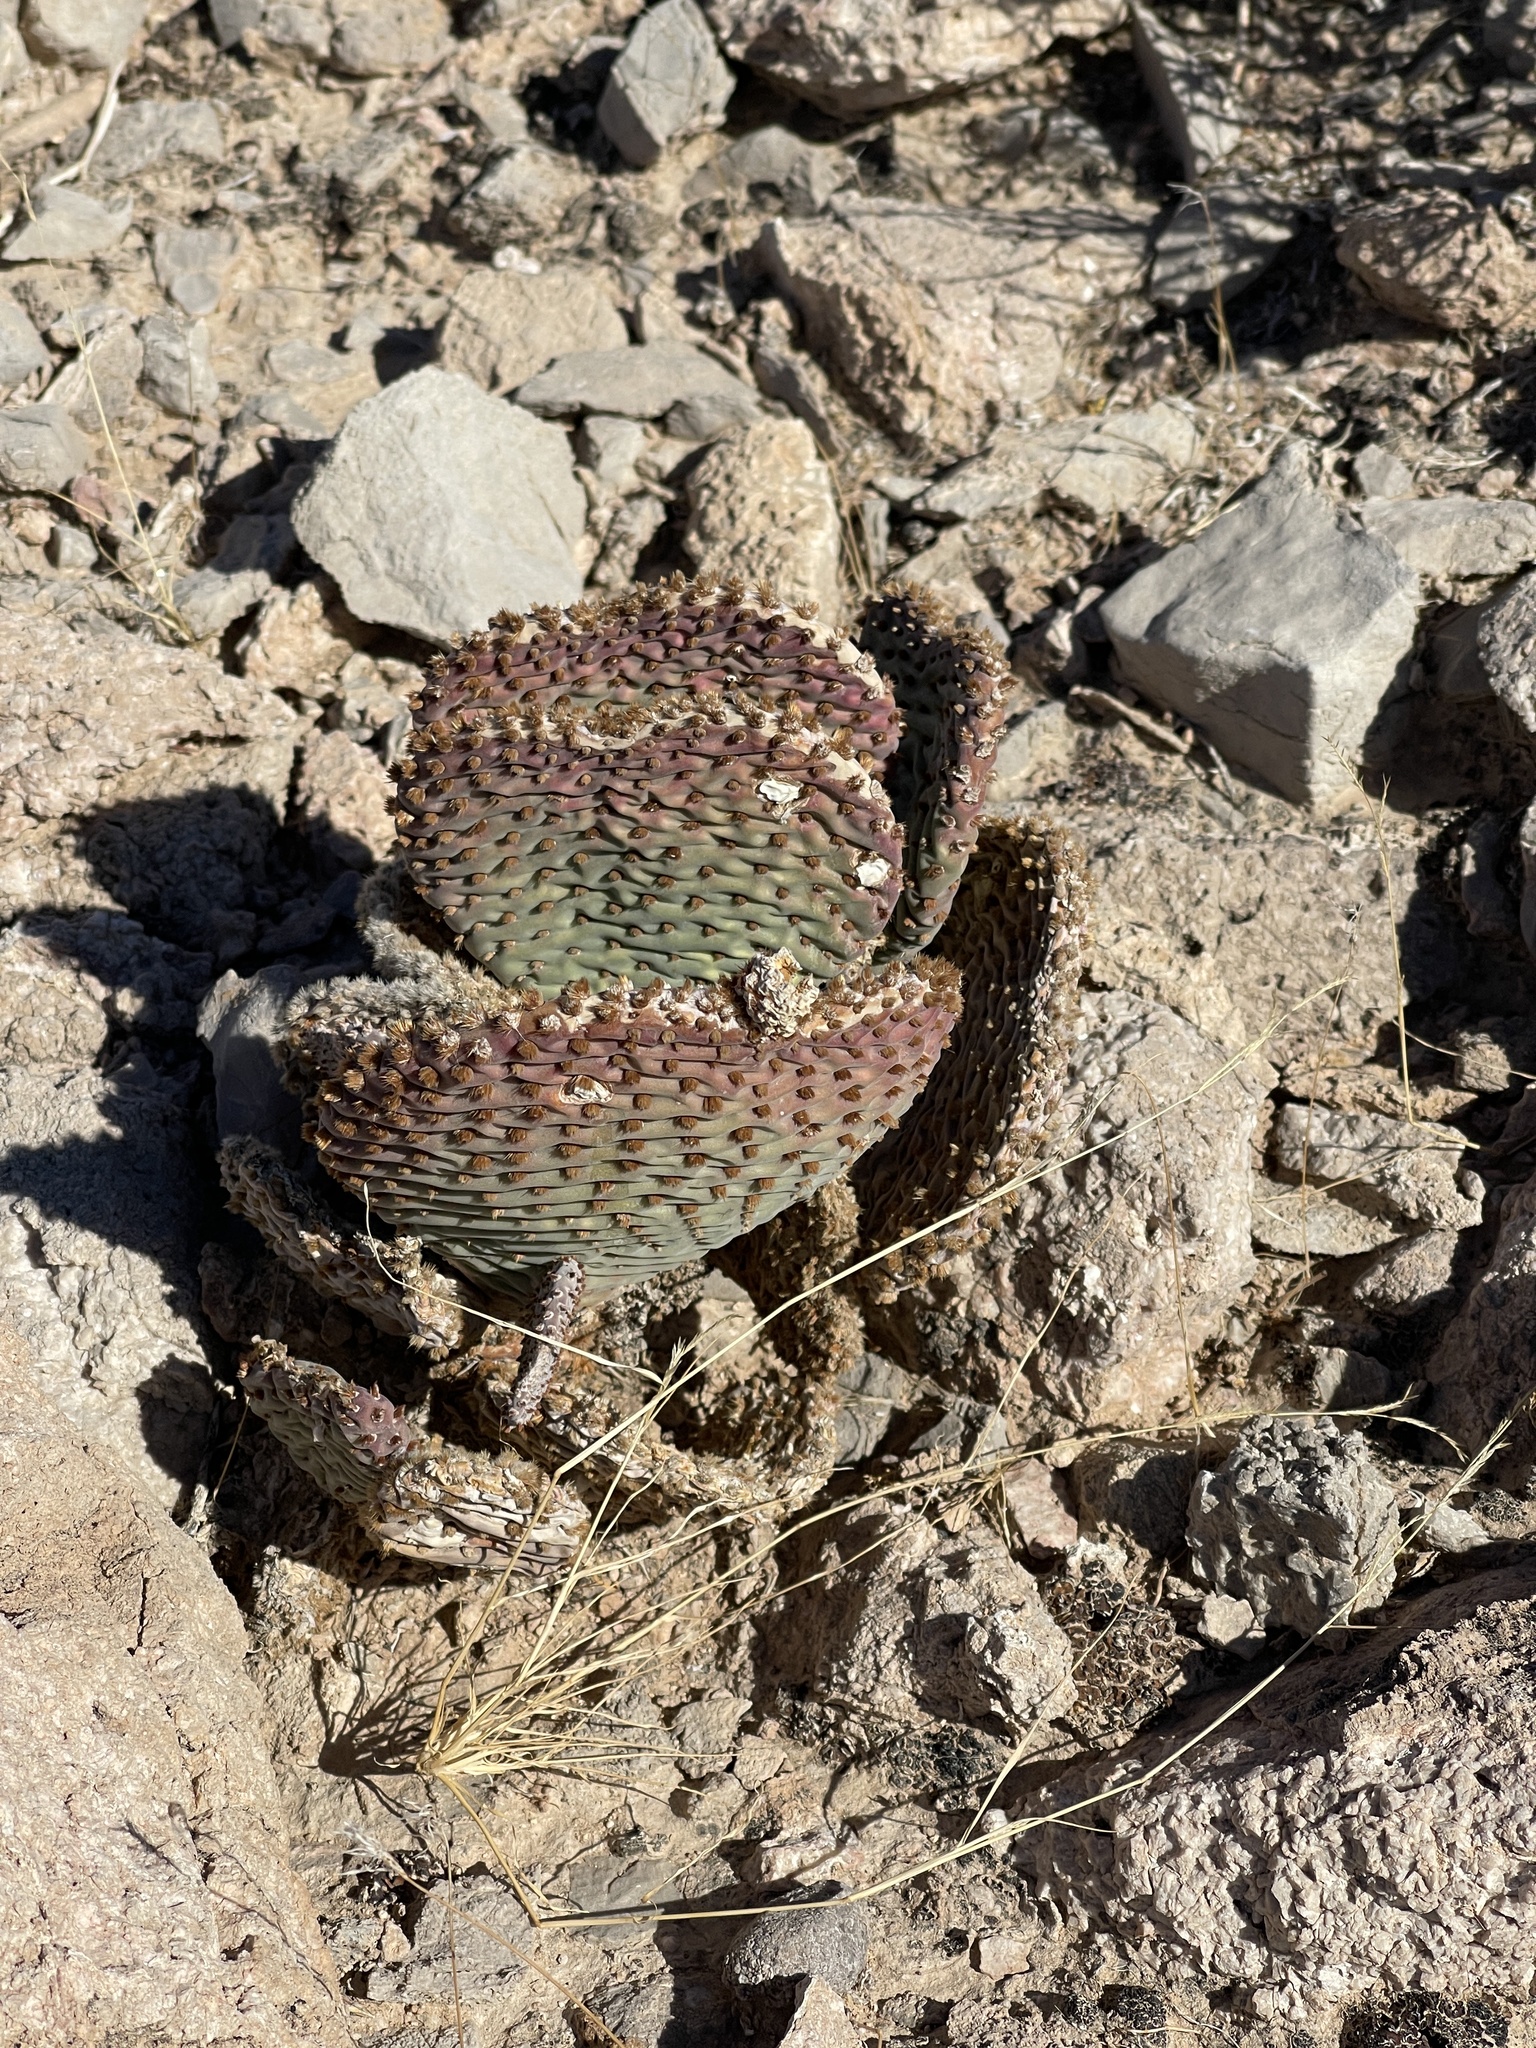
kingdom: Plantae
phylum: Tracheophyta
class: Magnoliopsida
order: Caryophyllales
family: Cactaceae
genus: Opuntia
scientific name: Opuntia basilaris
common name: Beavertail prickly-pear
